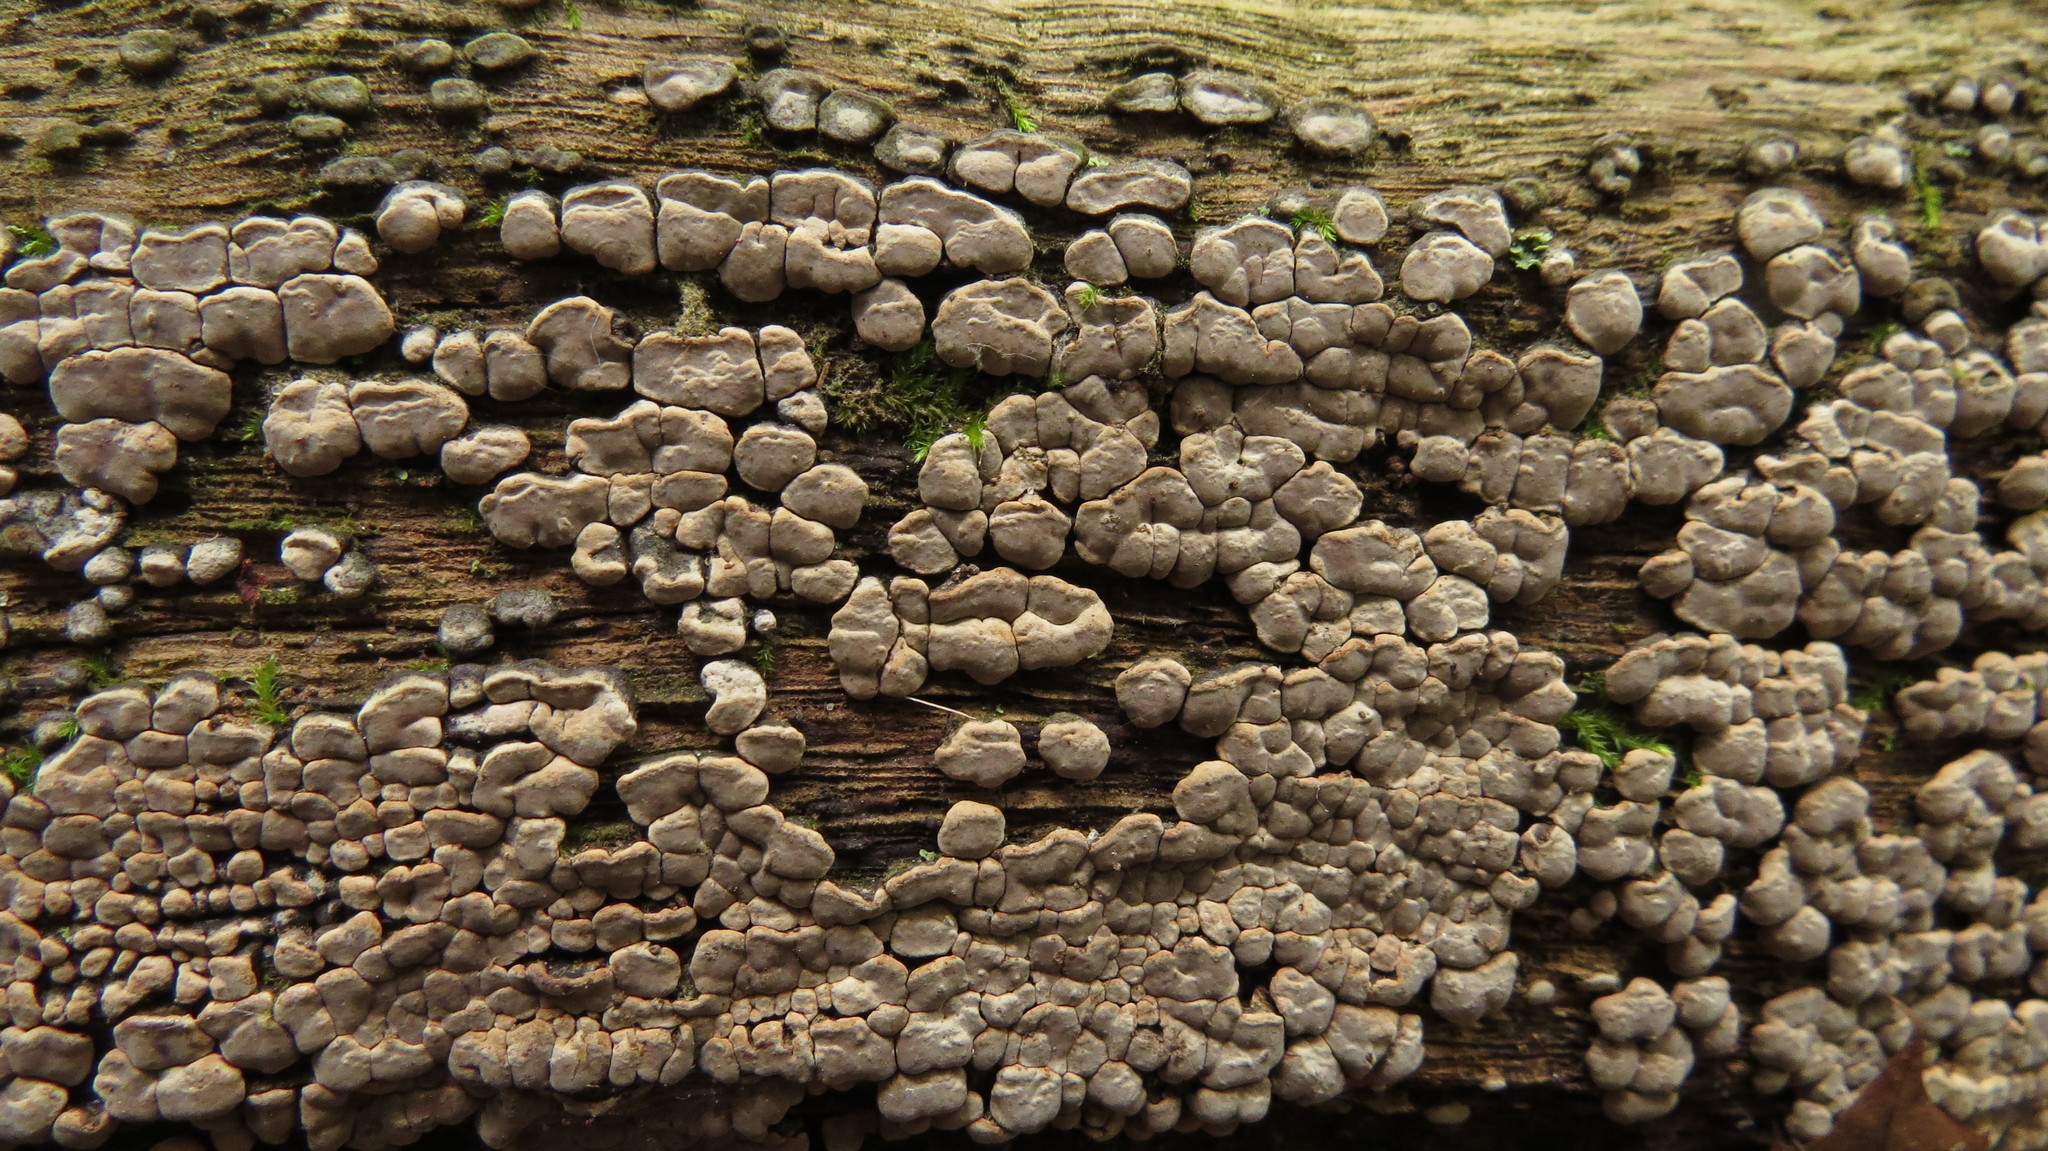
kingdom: Fungi
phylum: Basidiomycota
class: Agaricomycetes
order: Russulales
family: Stereaceae
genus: Xylobolus
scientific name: Xylobolus frustulatus
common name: Ceramic parchment
